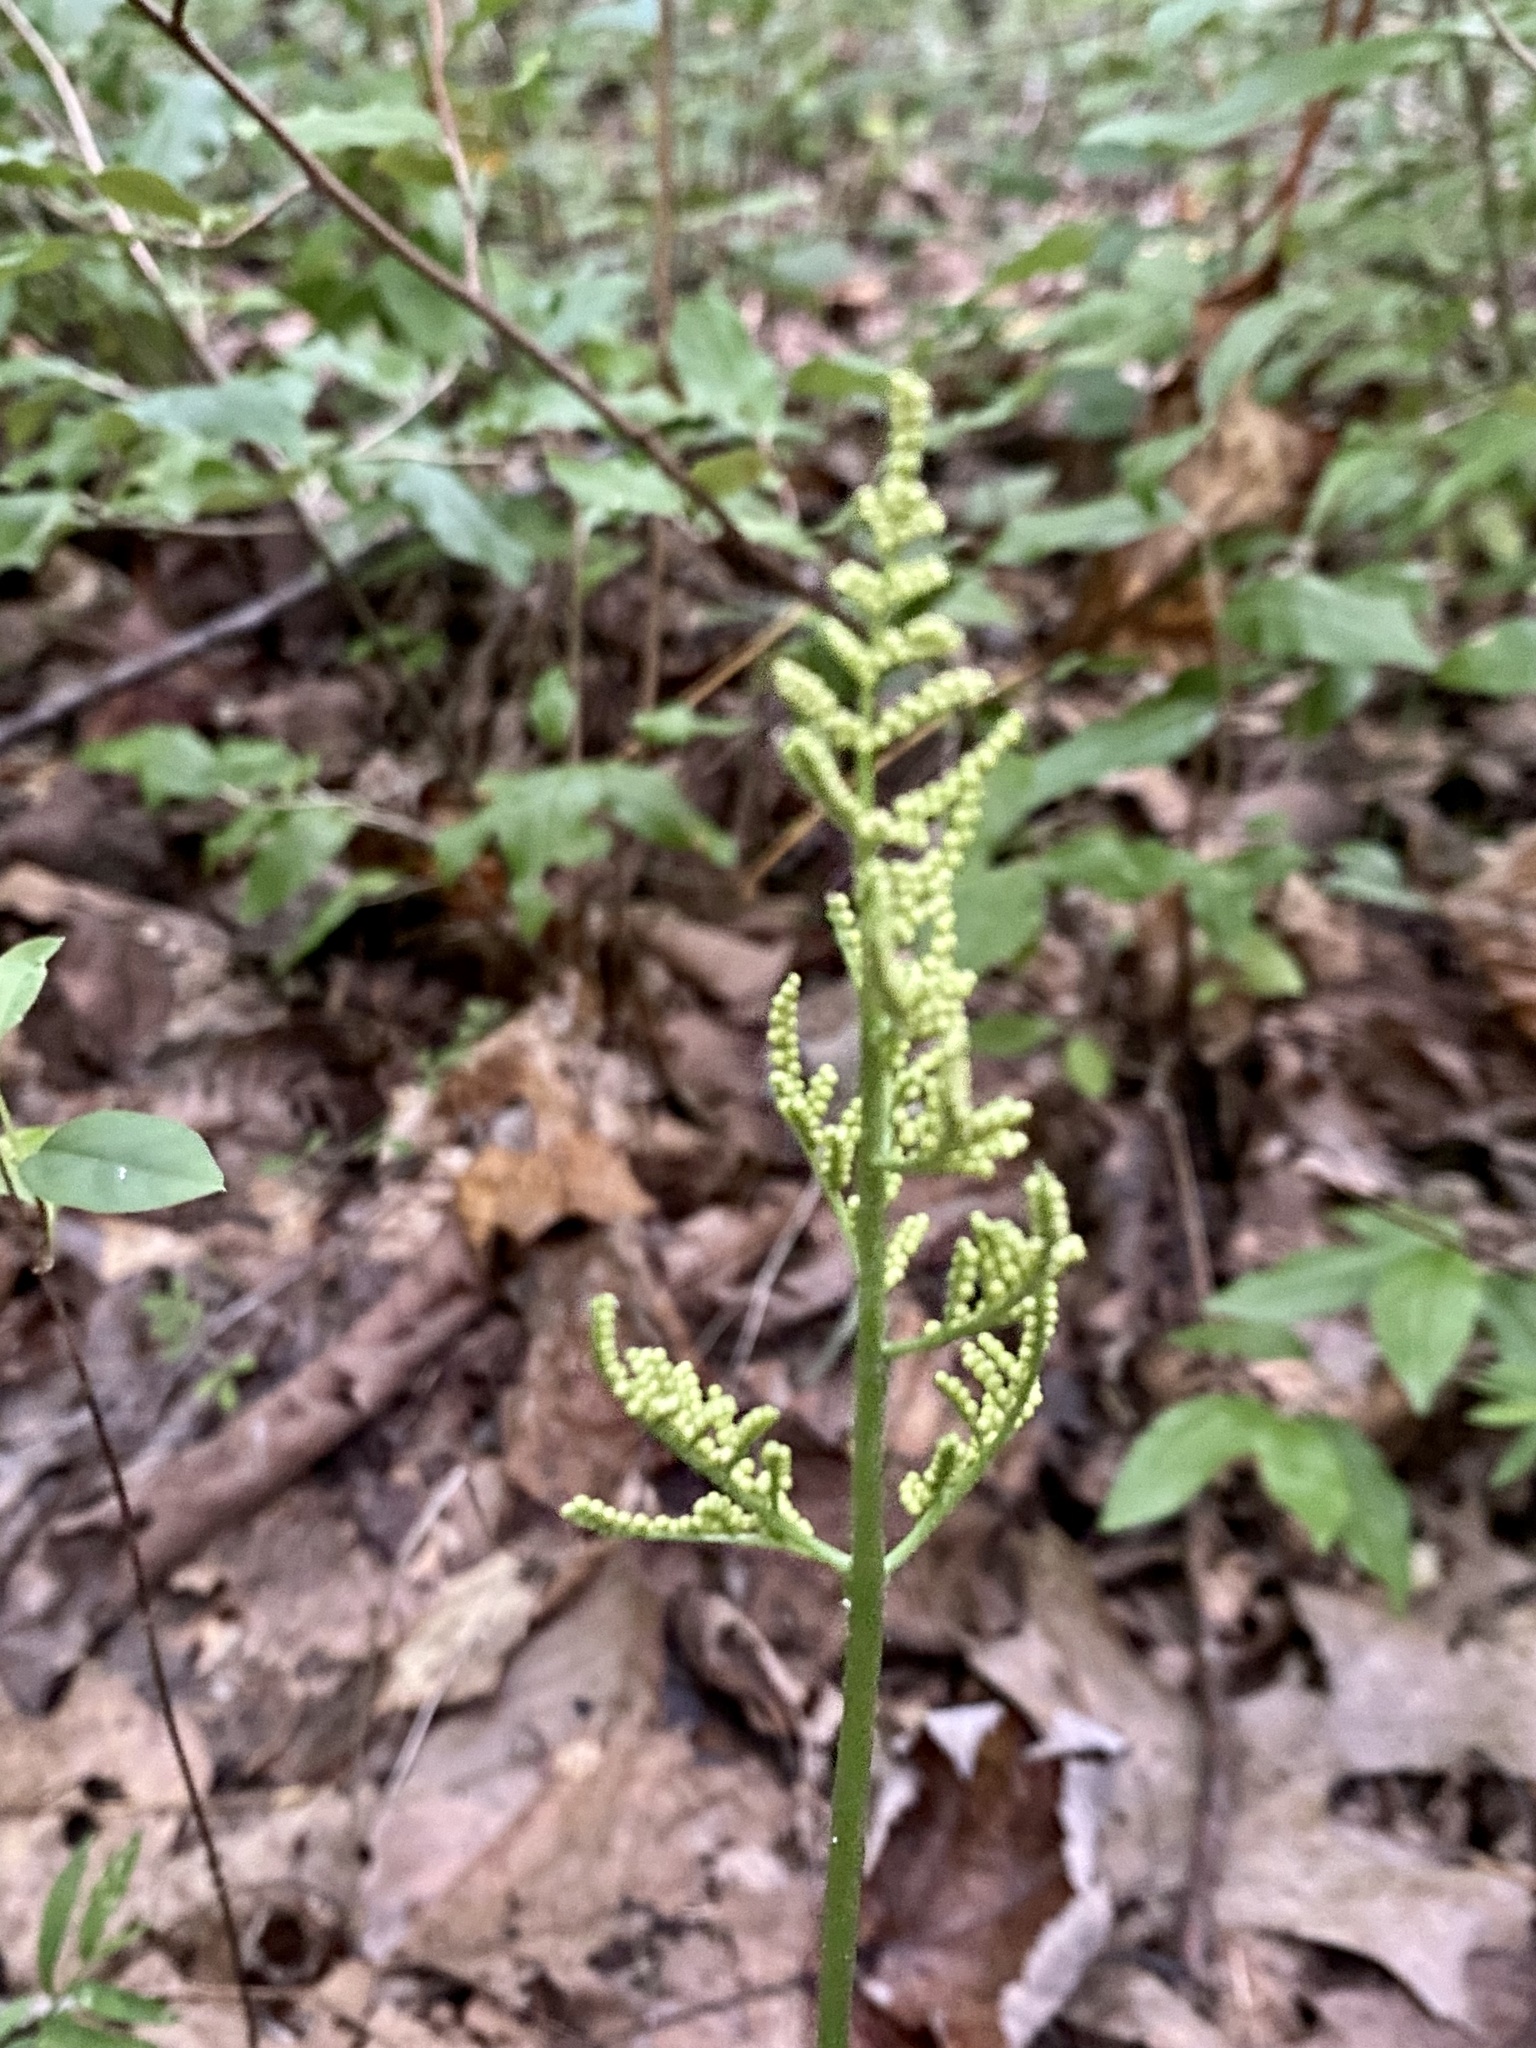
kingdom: Plantae
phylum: Tracheophyta
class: Polypodiopsida
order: Ophioglossales
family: Ophioglossaceae
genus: Sceptridium
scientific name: Sceptridium dissectum
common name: Cut-leaved grapefern
